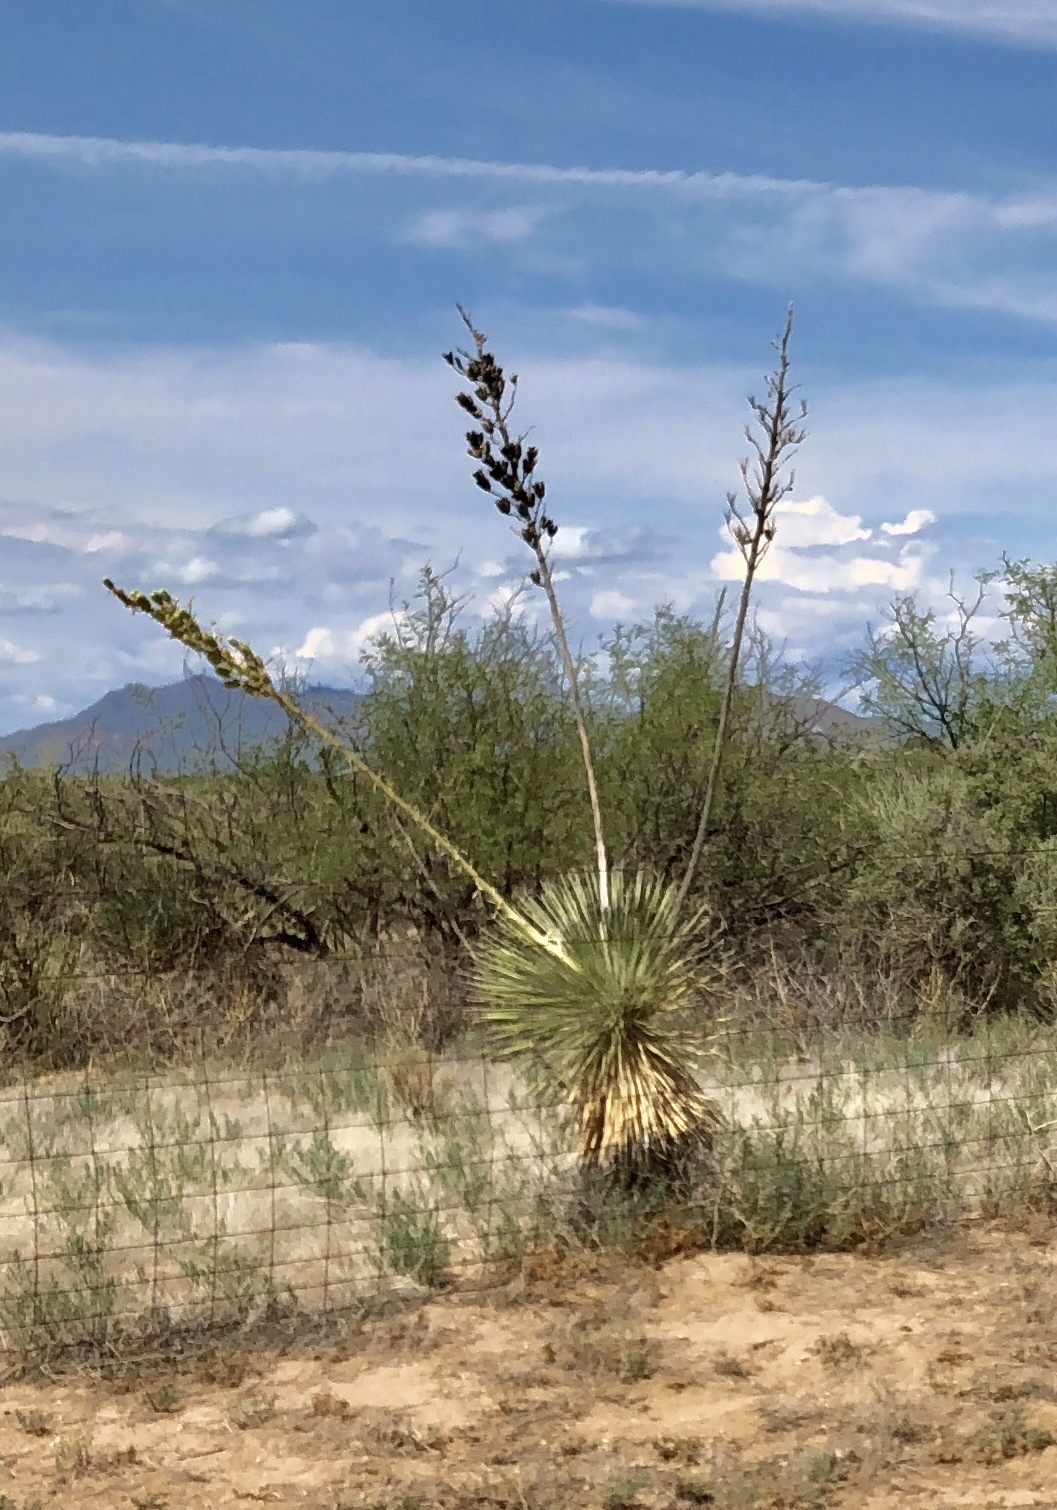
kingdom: Plantae
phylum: Tracheophyta
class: Liliopsida
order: Asparagales
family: Asparagaceae
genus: Yucca
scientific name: Yucca elata
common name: Palmella
